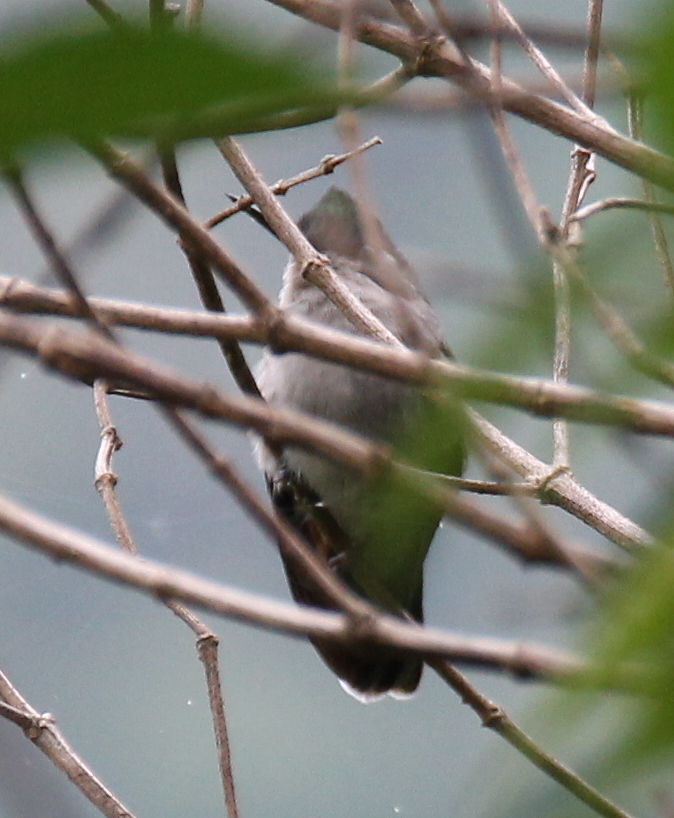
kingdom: Animalia
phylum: Chordata
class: Aves
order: Apodiformes
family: Trochilidae
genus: Stephanoxis
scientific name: Stephanoxis lalandi
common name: Green-crowned plovercrest
